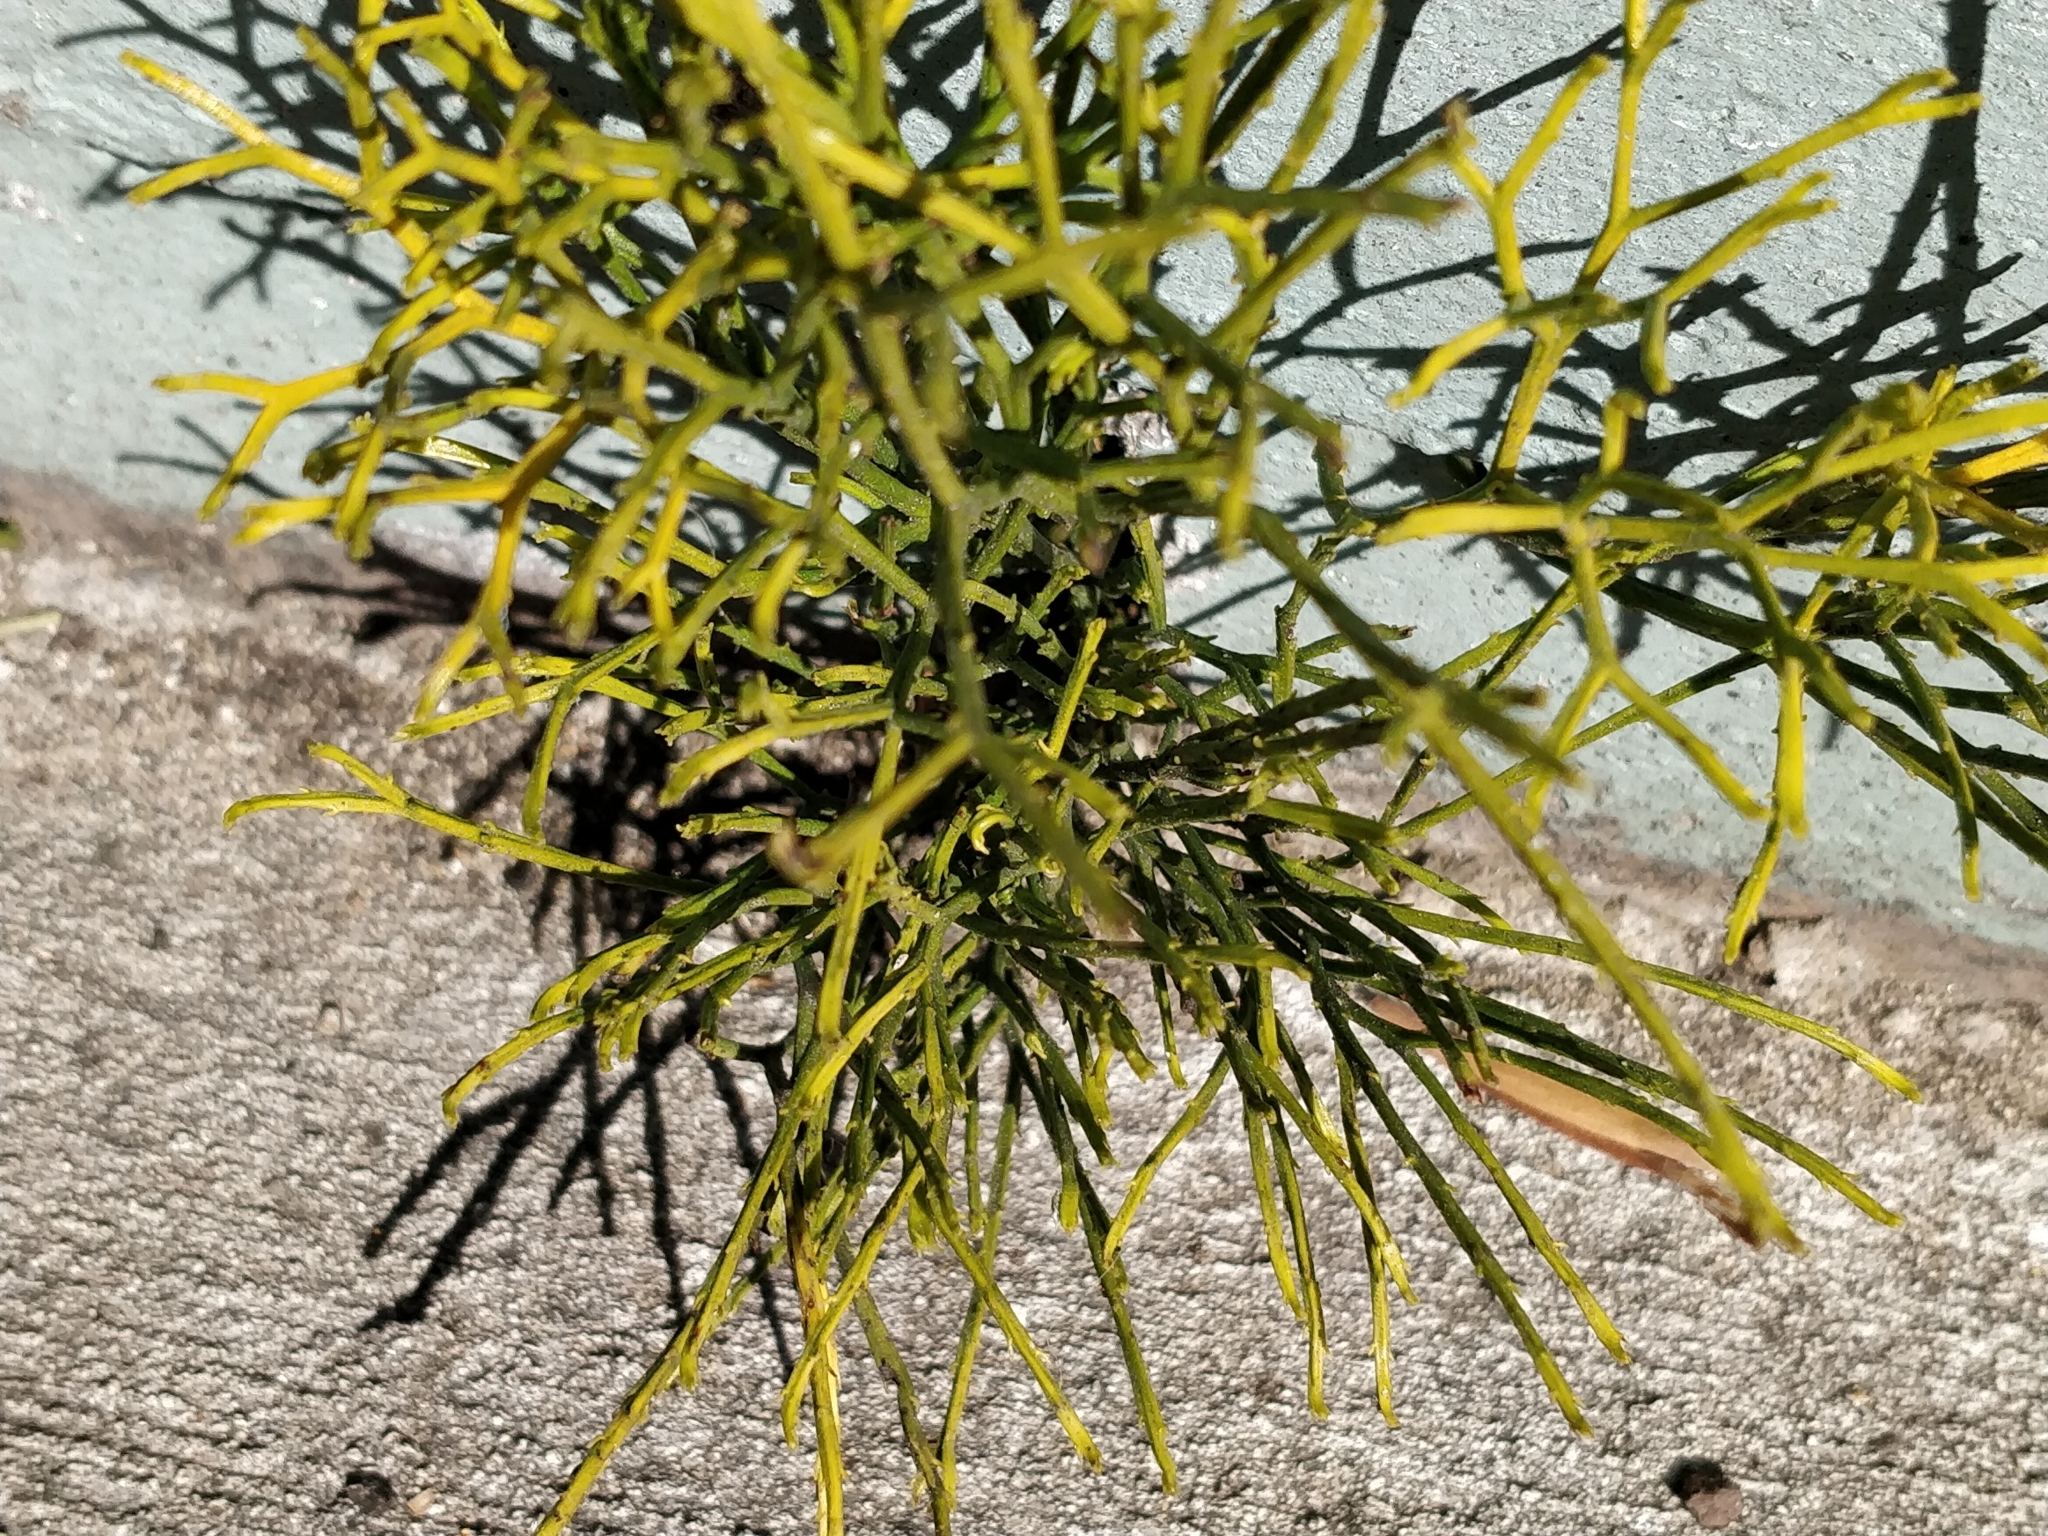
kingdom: Plantae
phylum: Tracheophyta
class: Polypodiopsida
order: Psilotales
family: Psilotaceae
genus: Psilotum
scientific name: Psilotum nudum
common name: Skeleton fork fern
